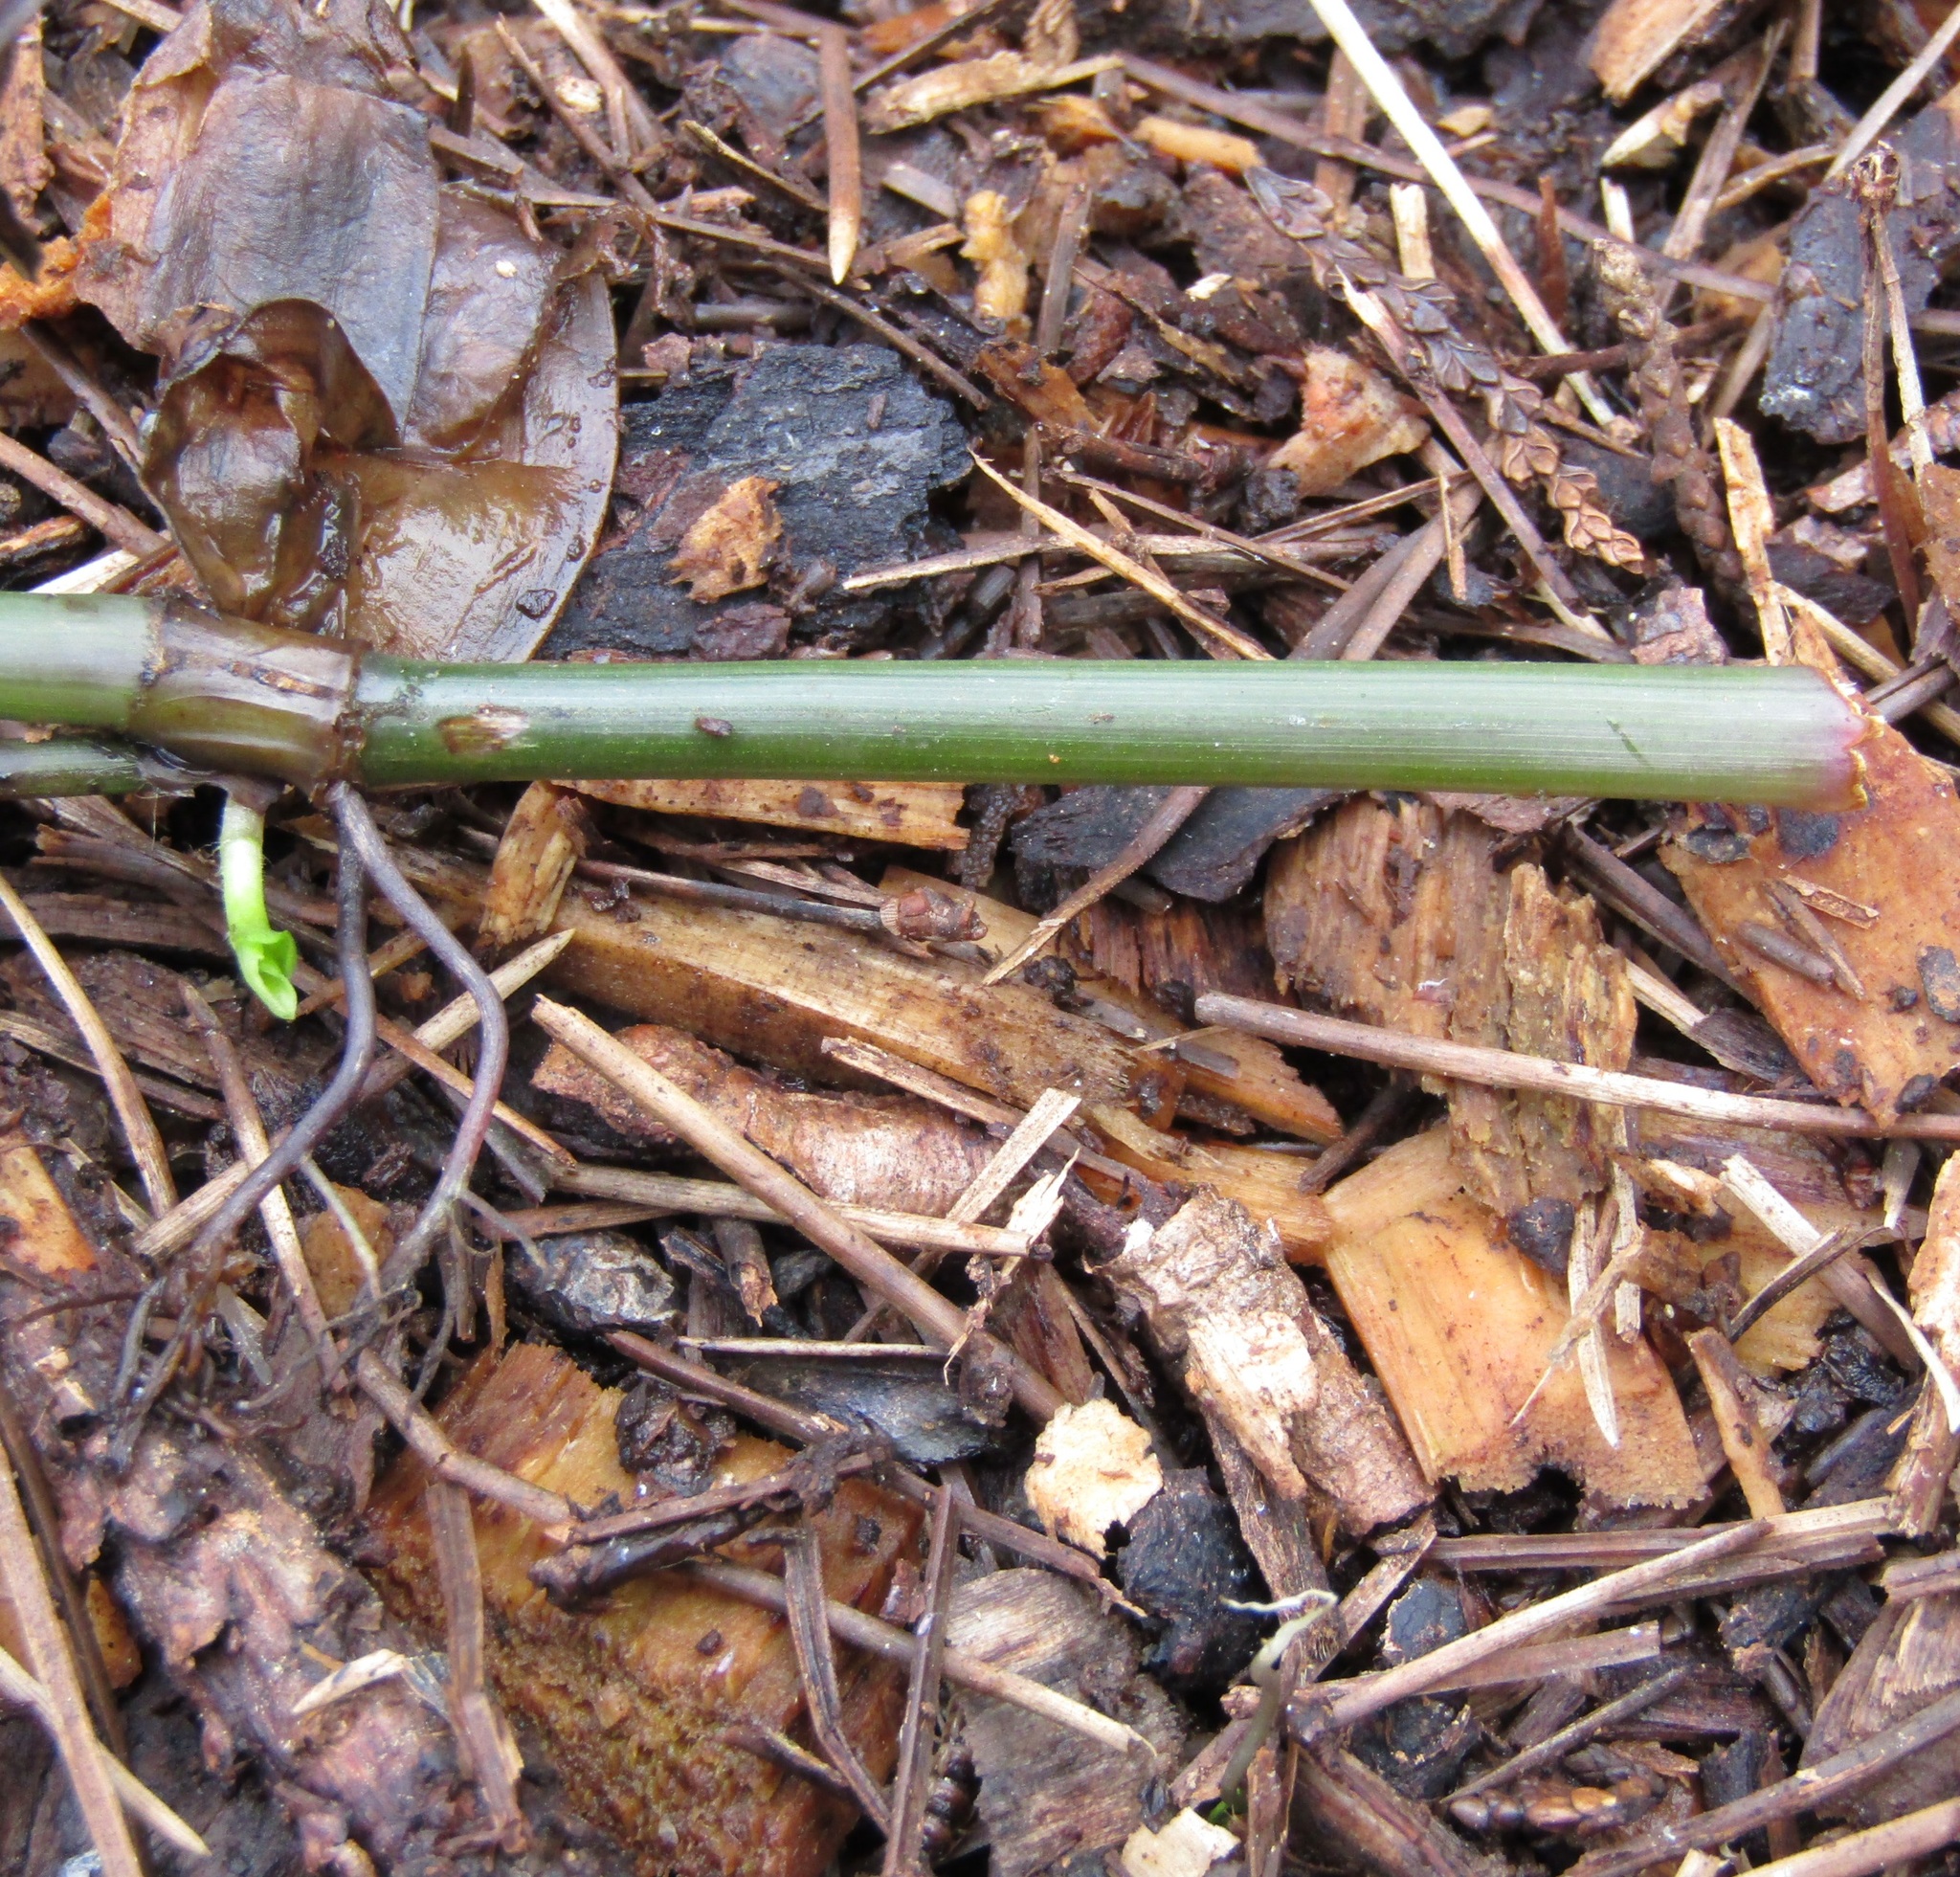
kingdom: Plantae
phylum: Tracheophyta
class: Liliopsida
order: Commelinales
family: Commelinaceae
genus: Tradescantia
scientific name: Tradescantia fluminensis
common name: Wandering-jew
